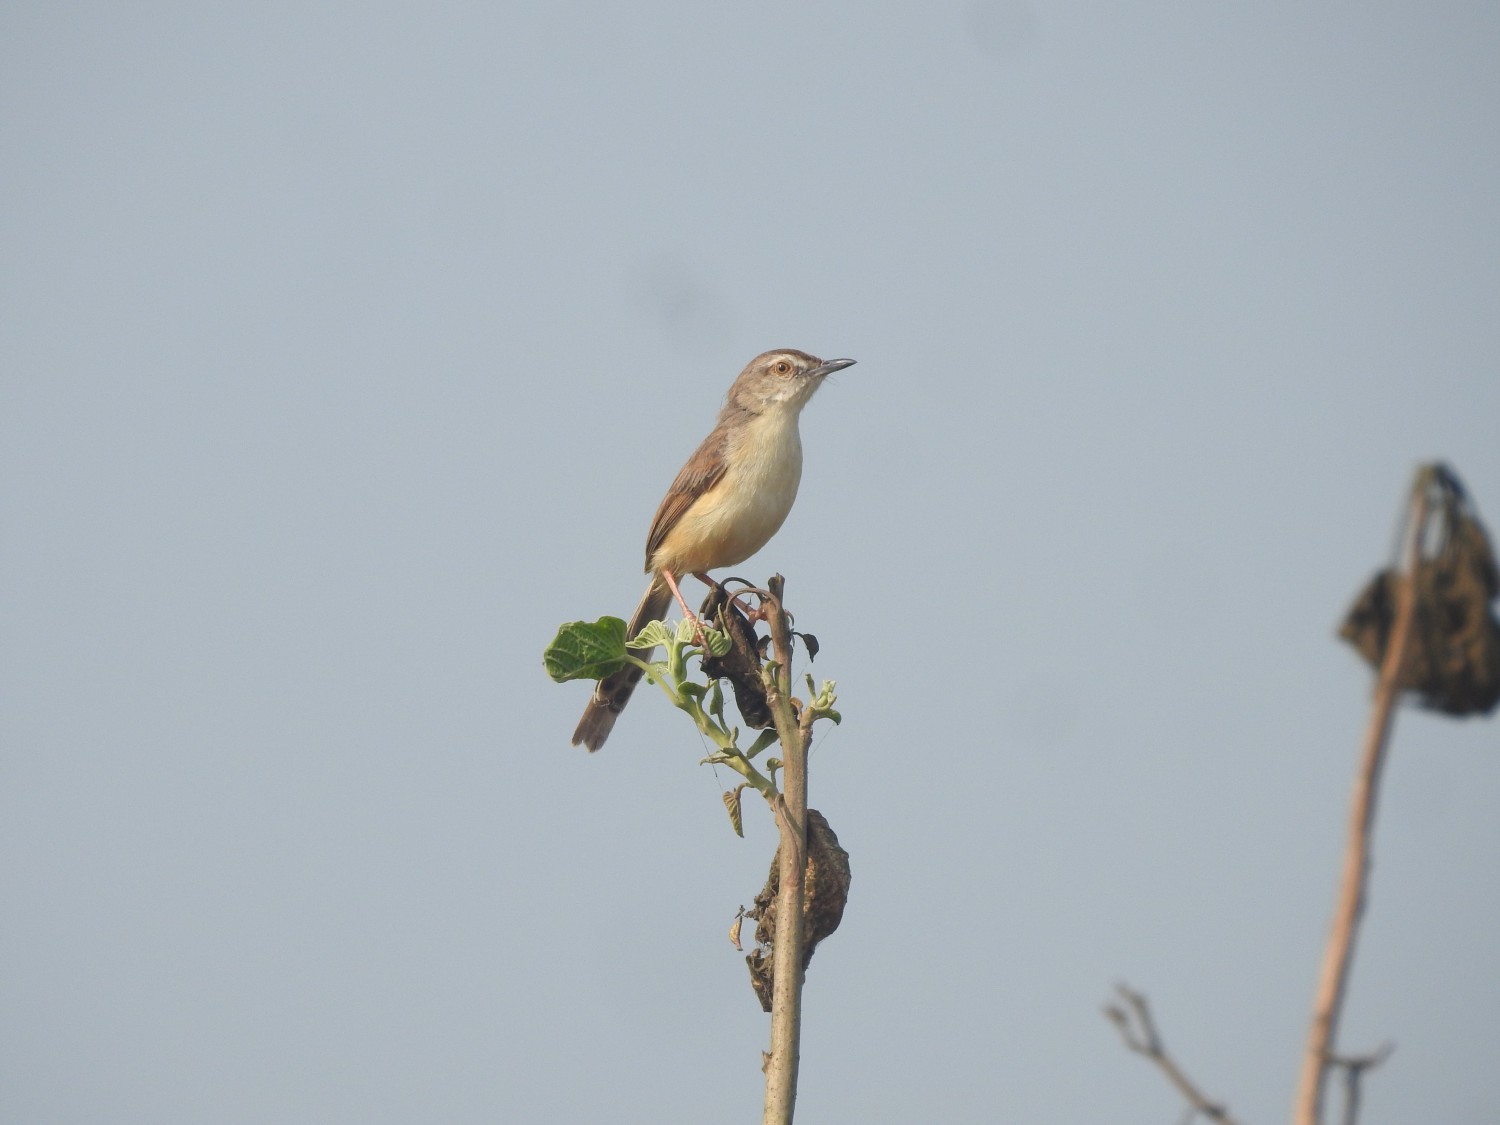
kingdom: Animalia
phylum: Chordata
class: Aves
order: Passeriformes
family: Cisticolidae
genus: Prinia
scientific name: Prinia inornata
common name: Plain prinia
